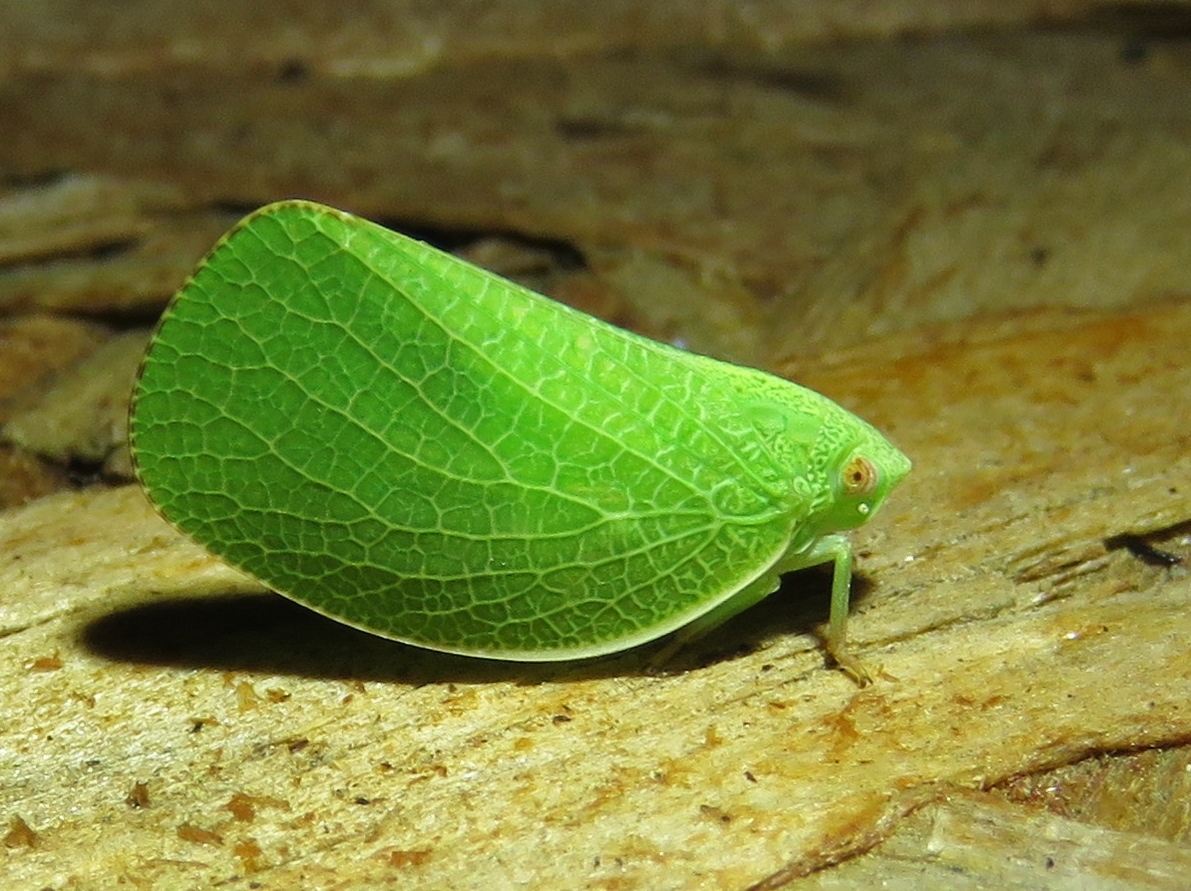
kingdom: Animalia
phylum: Arthropoda
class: Insecta
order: Hemiptera
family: Acanaloniidae
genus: Acanalonia
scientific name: Acanalonia conica
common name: Green cone-headed planthopper
